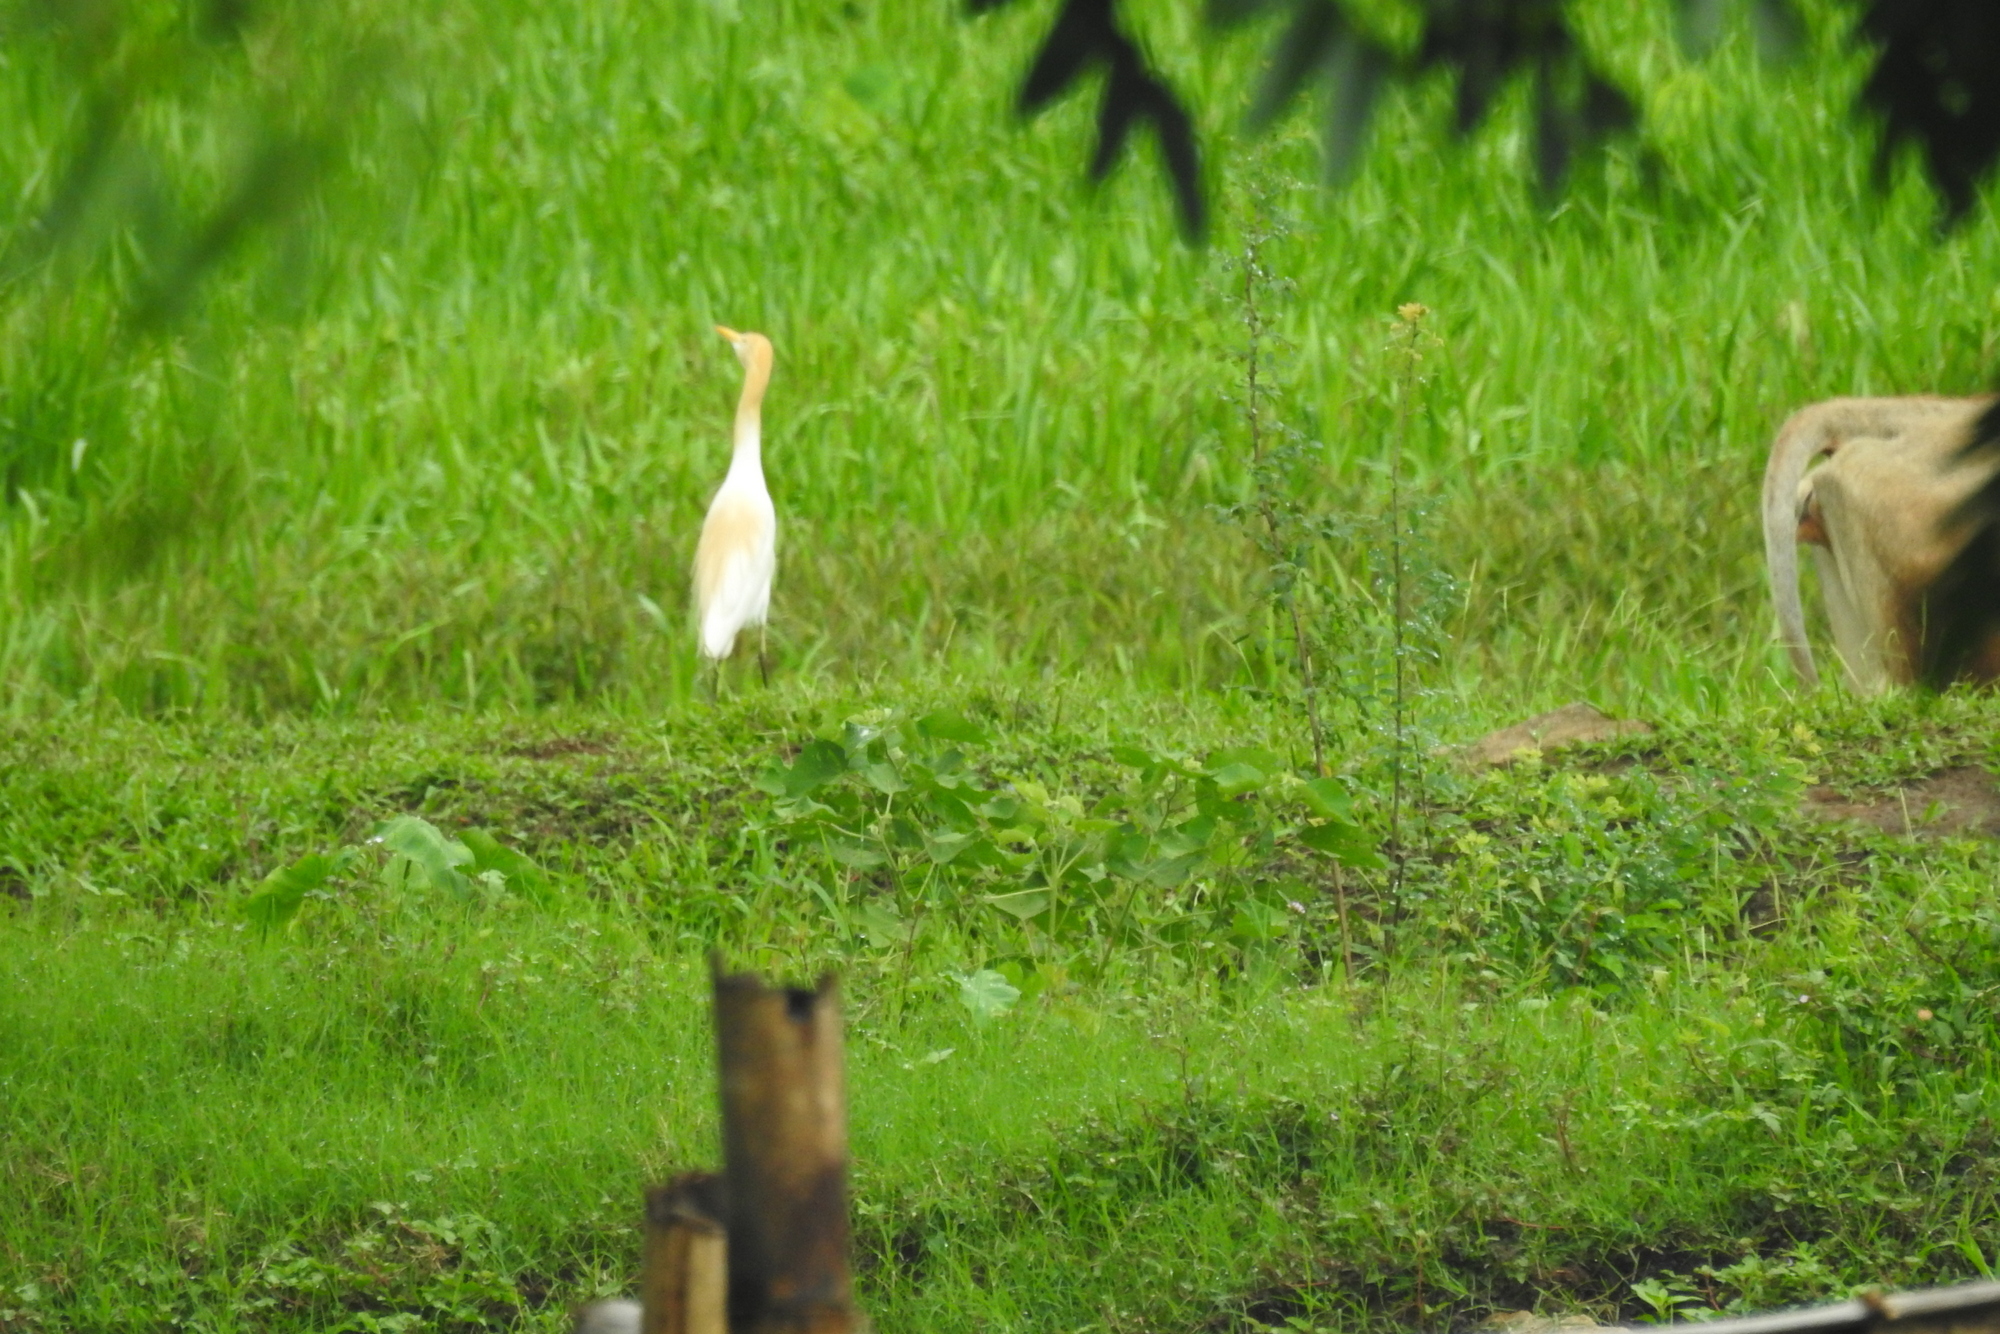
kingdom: Animalia
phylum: Chordata
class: Aves
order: Pelecaniformes
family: Ardeidae
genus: Bubulcus
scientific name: Bubulcus coromandus
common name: Eastern cattle egret
